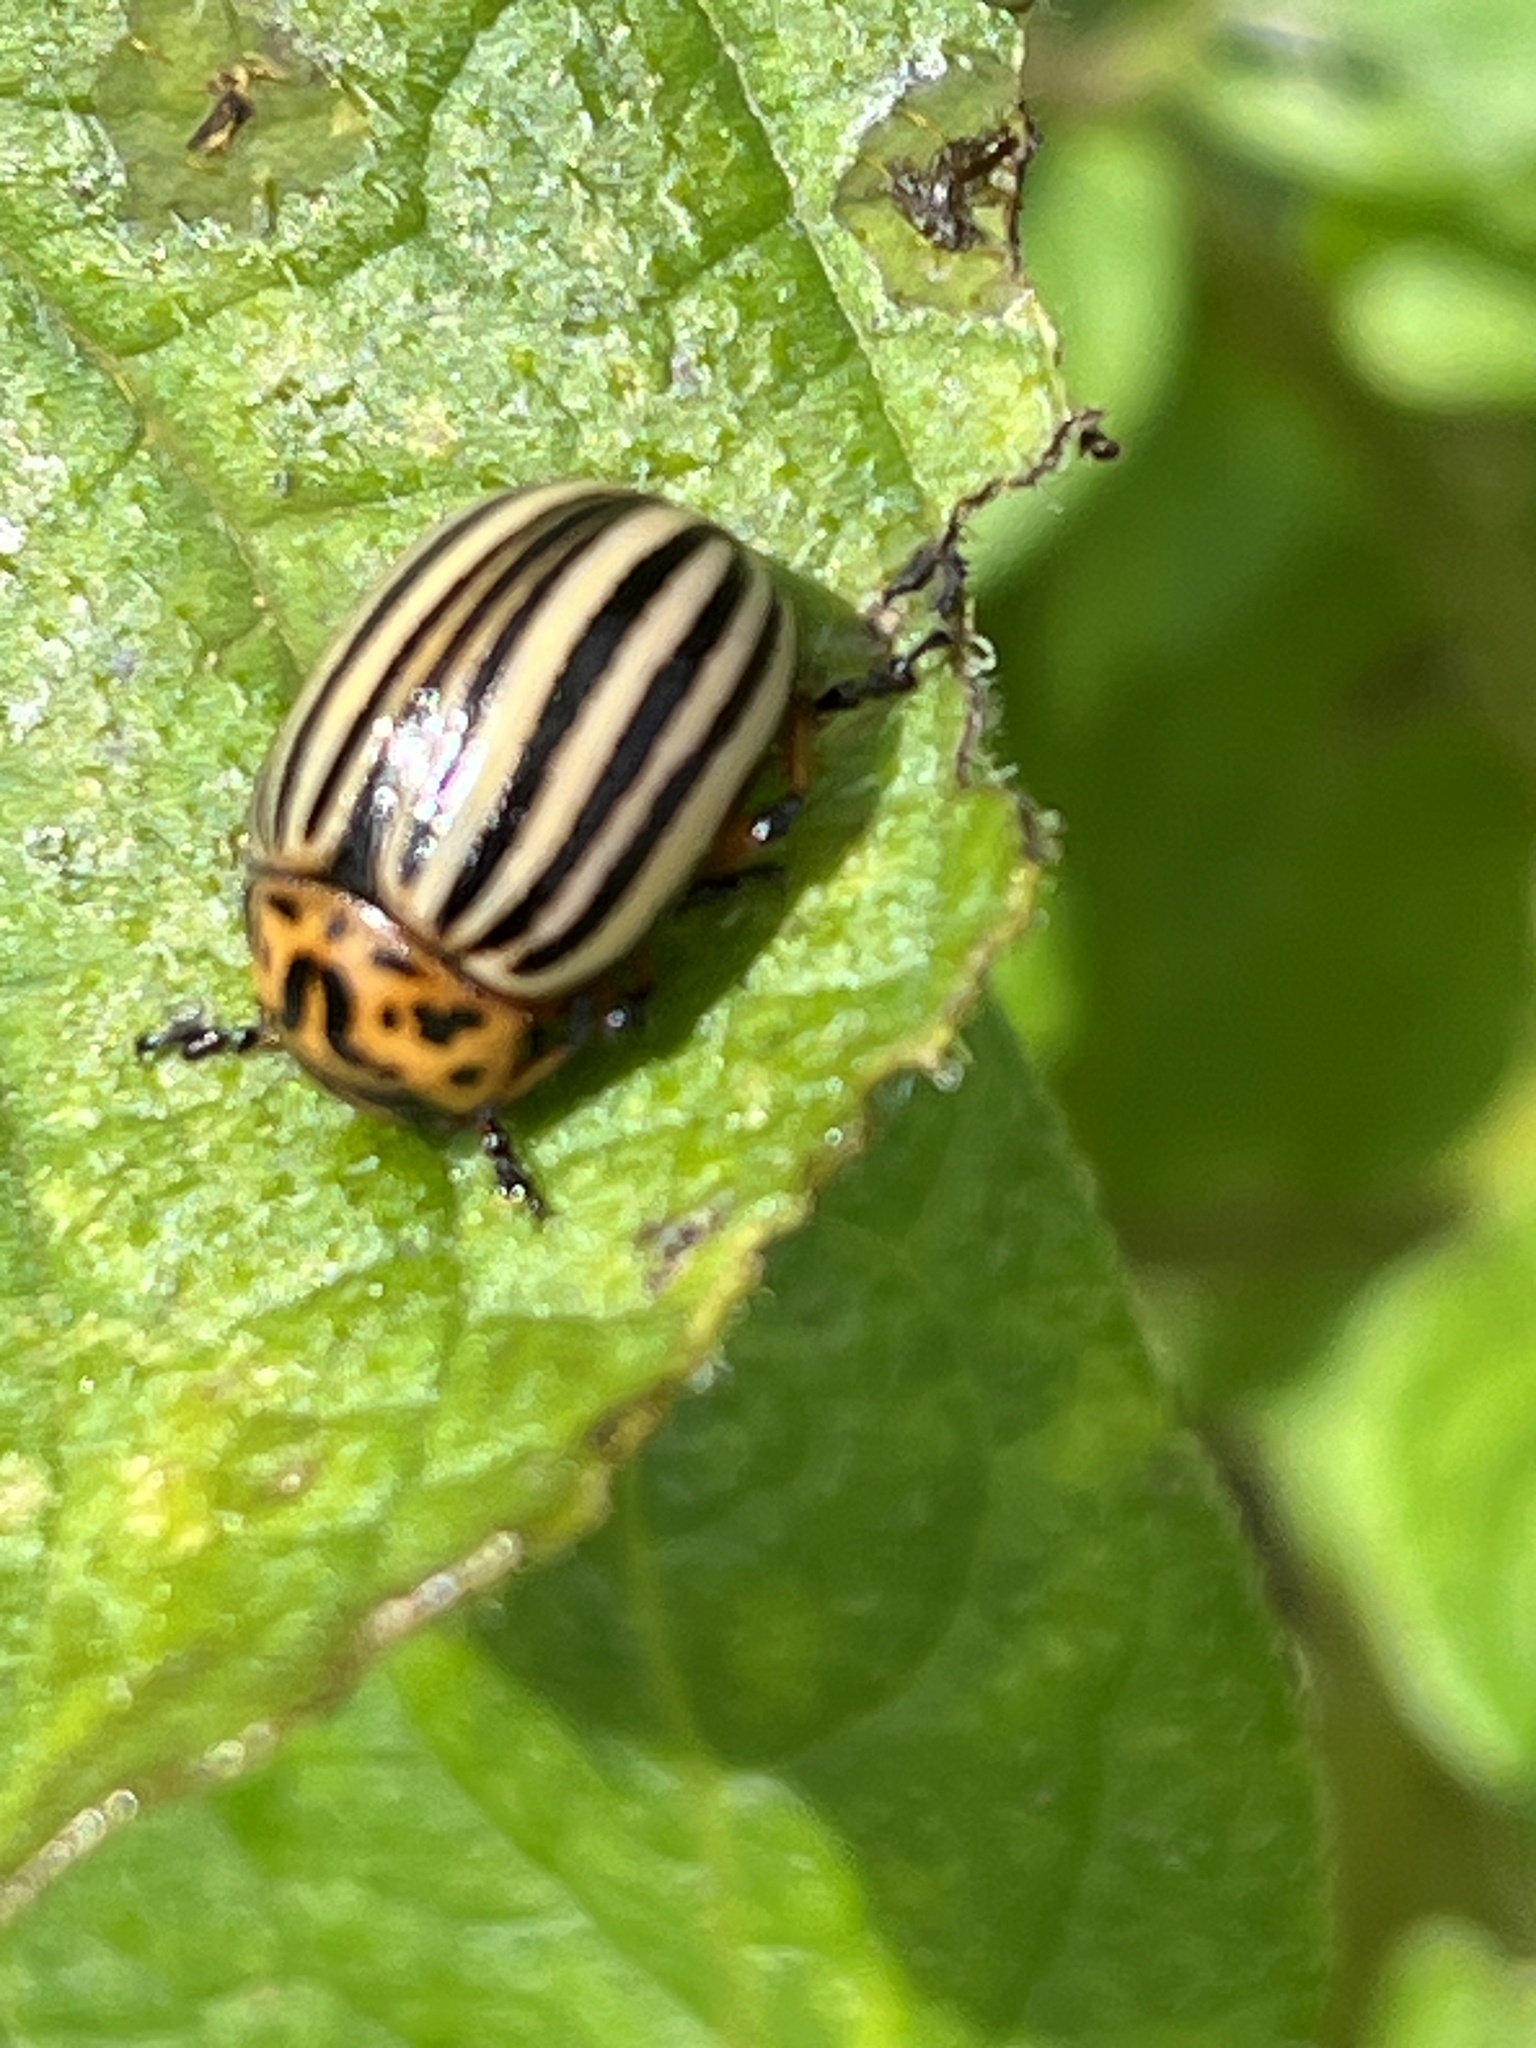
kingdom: Animalia
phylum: Arthropoda
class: Insecta
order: Coleoptera
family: Chrysomelidae
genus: Leptinotarsa
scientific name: Leptinotarsa decemlineata
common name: Colorado potato beetle
